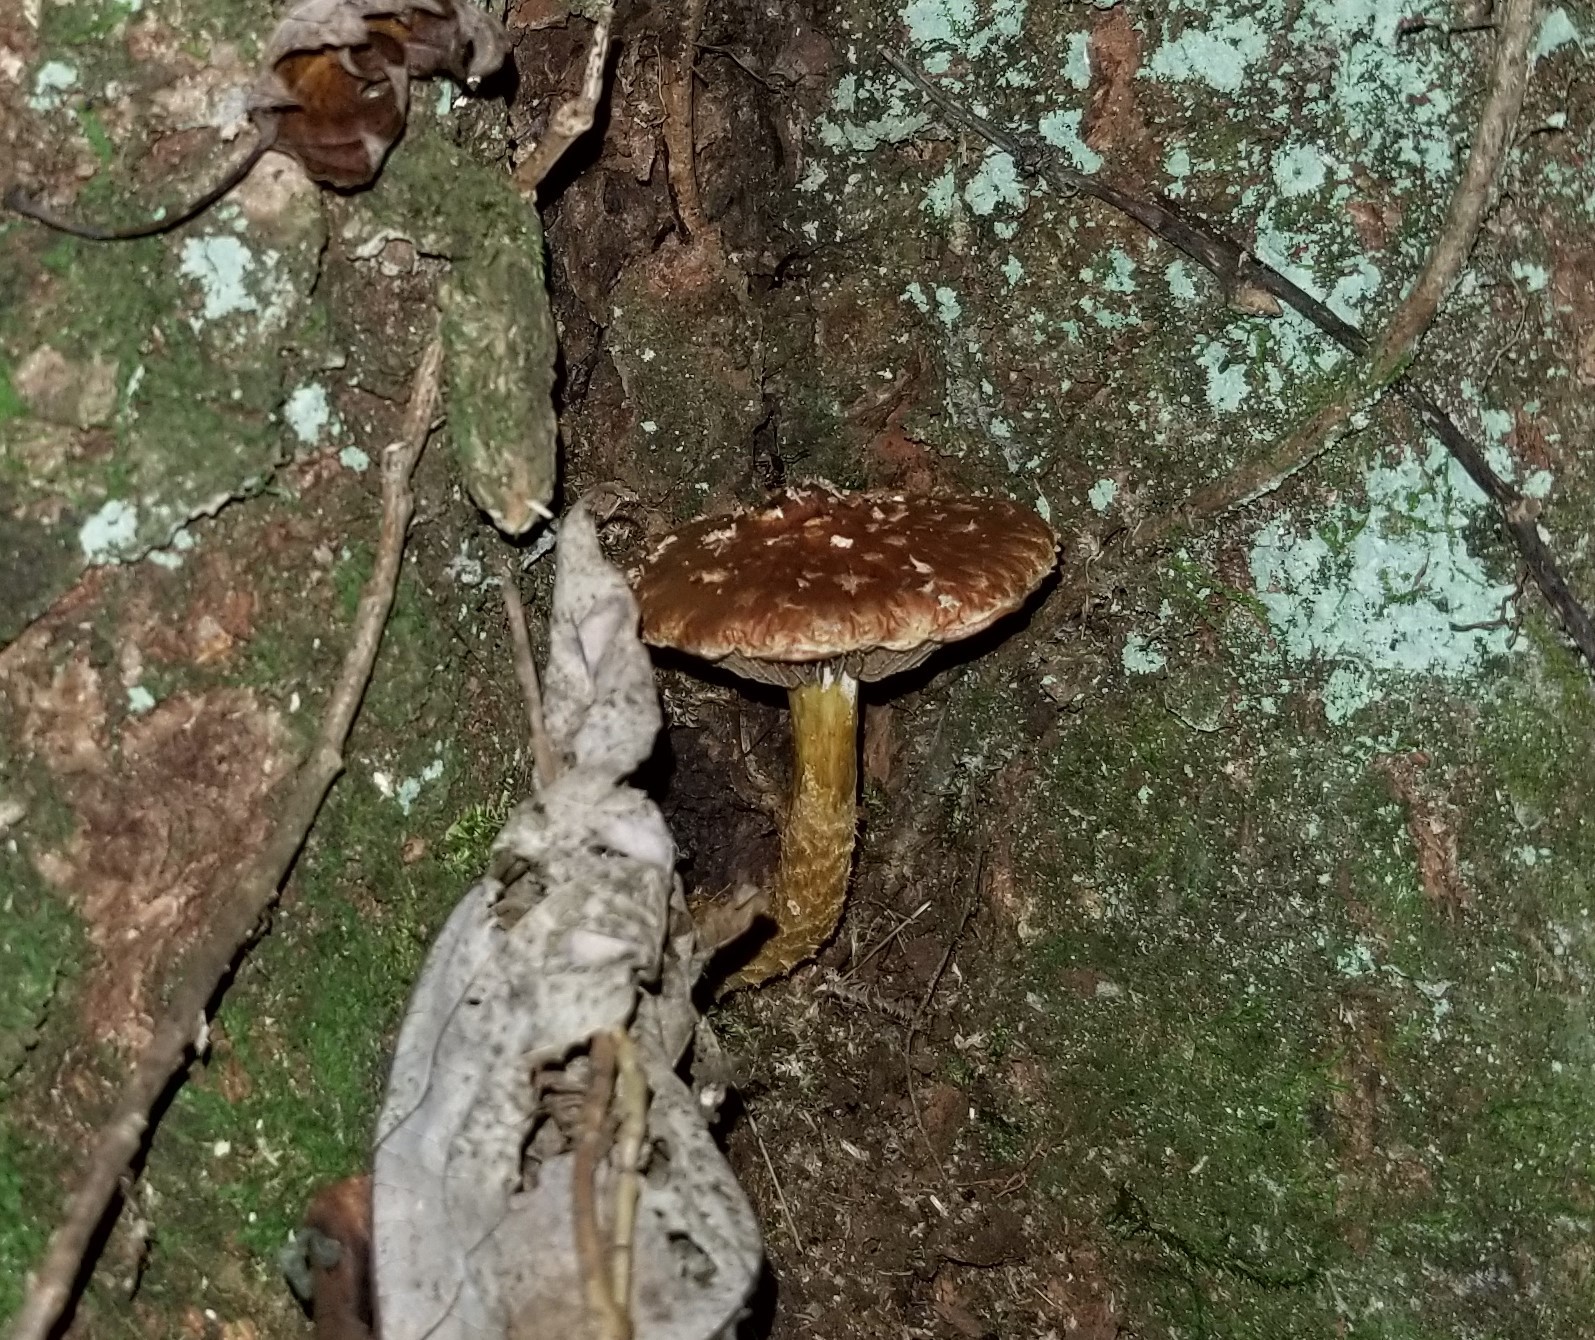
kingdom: Fungi
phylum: Basidiomycota
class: Agaricomycetes
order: Agaricales
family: Tubariaceae
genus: Hemistropharia
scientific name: Hemistropharia albocrenulata
